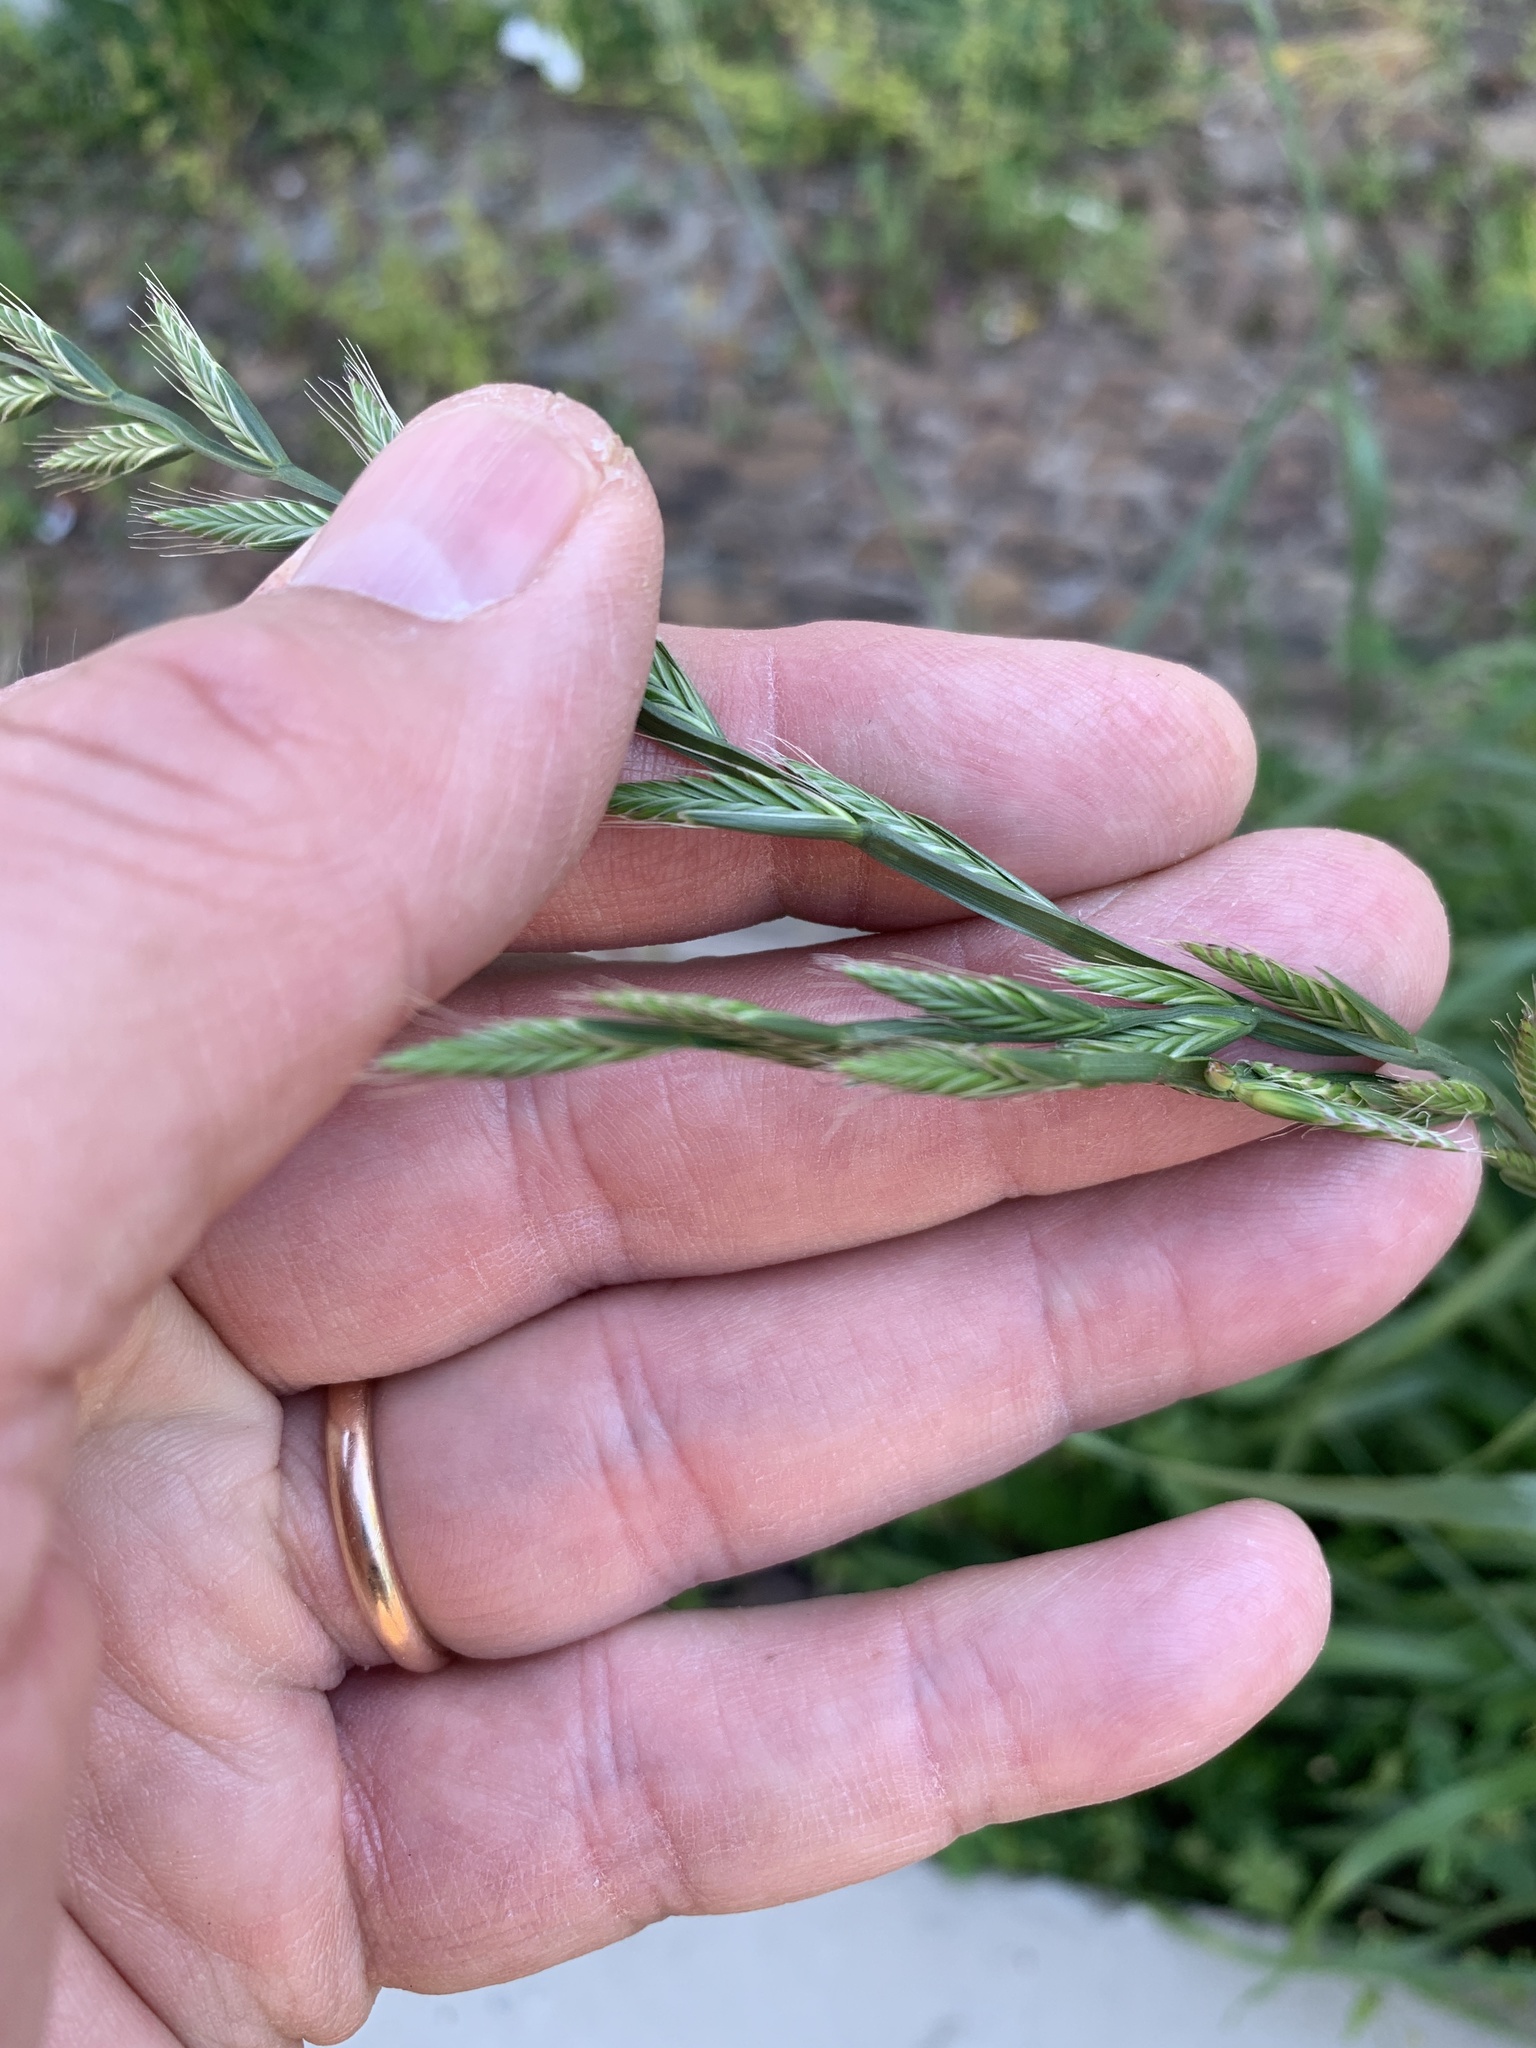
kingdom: Plantae
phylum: Tracheophyta
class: Liliopsida
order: Poales
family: Poaceae
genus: Lolium
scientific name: Lolium multiflorum
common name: Annual ryegrass
